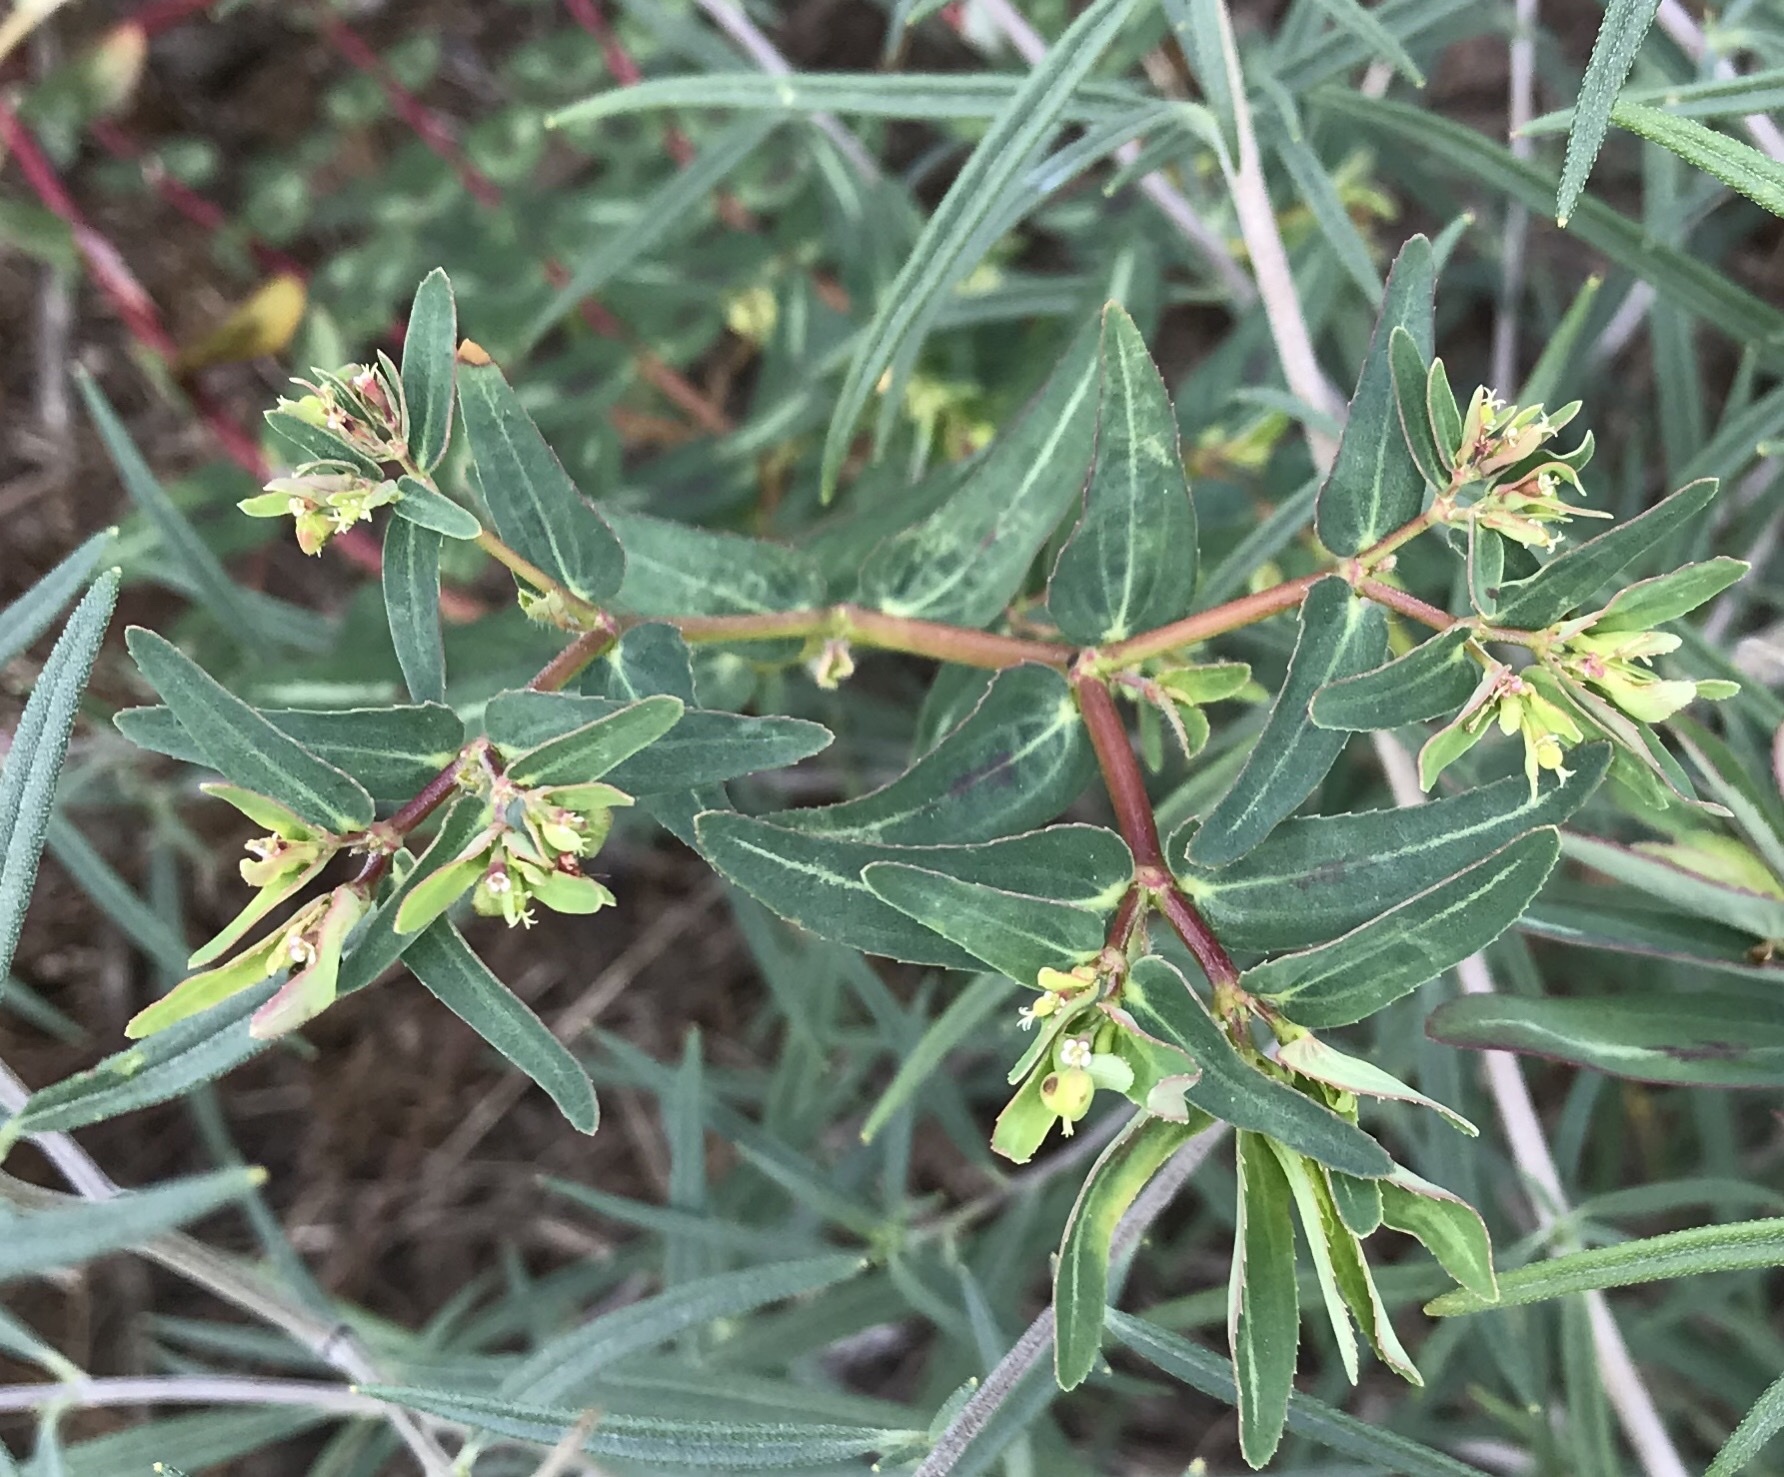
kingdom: Plantae
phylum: Tracheophyta
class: Magnoliopsida
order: Malpighiales
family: Euphorbiaceae
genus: Euphorbia
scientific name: Euphorbia nutans
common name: Eyebane
